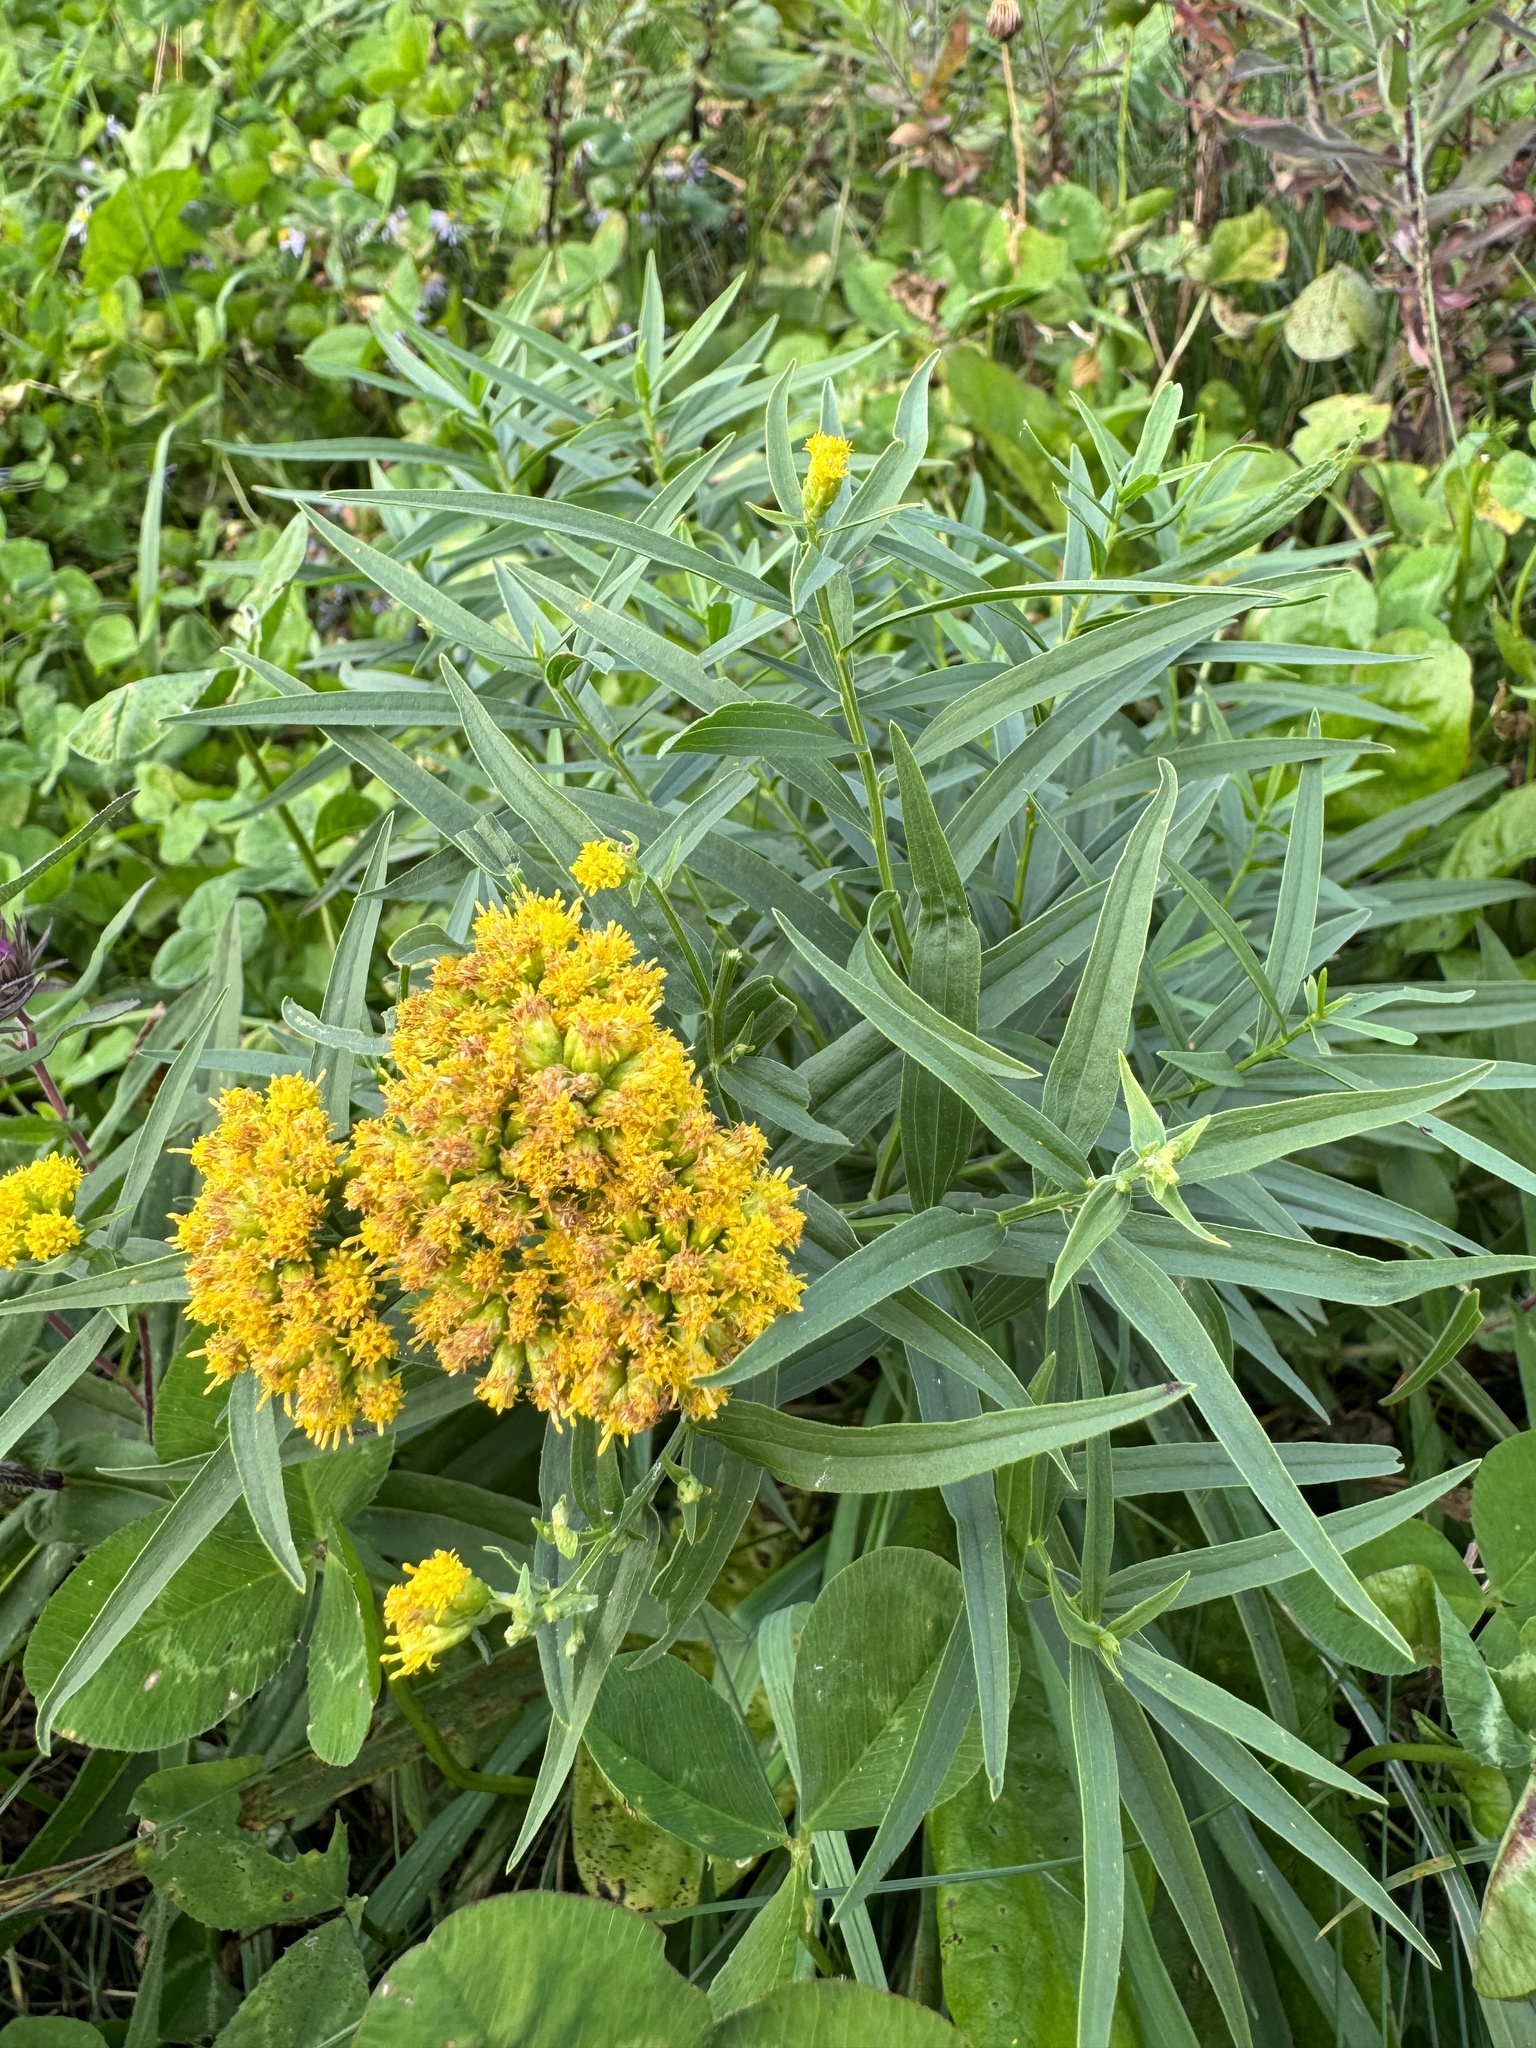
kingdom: Plantae
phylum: Tracheophyta
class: Magnoliopsida
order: Asterales
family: Asteraceae
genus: Euthamia
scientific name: Euthamia graminifolia
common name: Common goldentop
